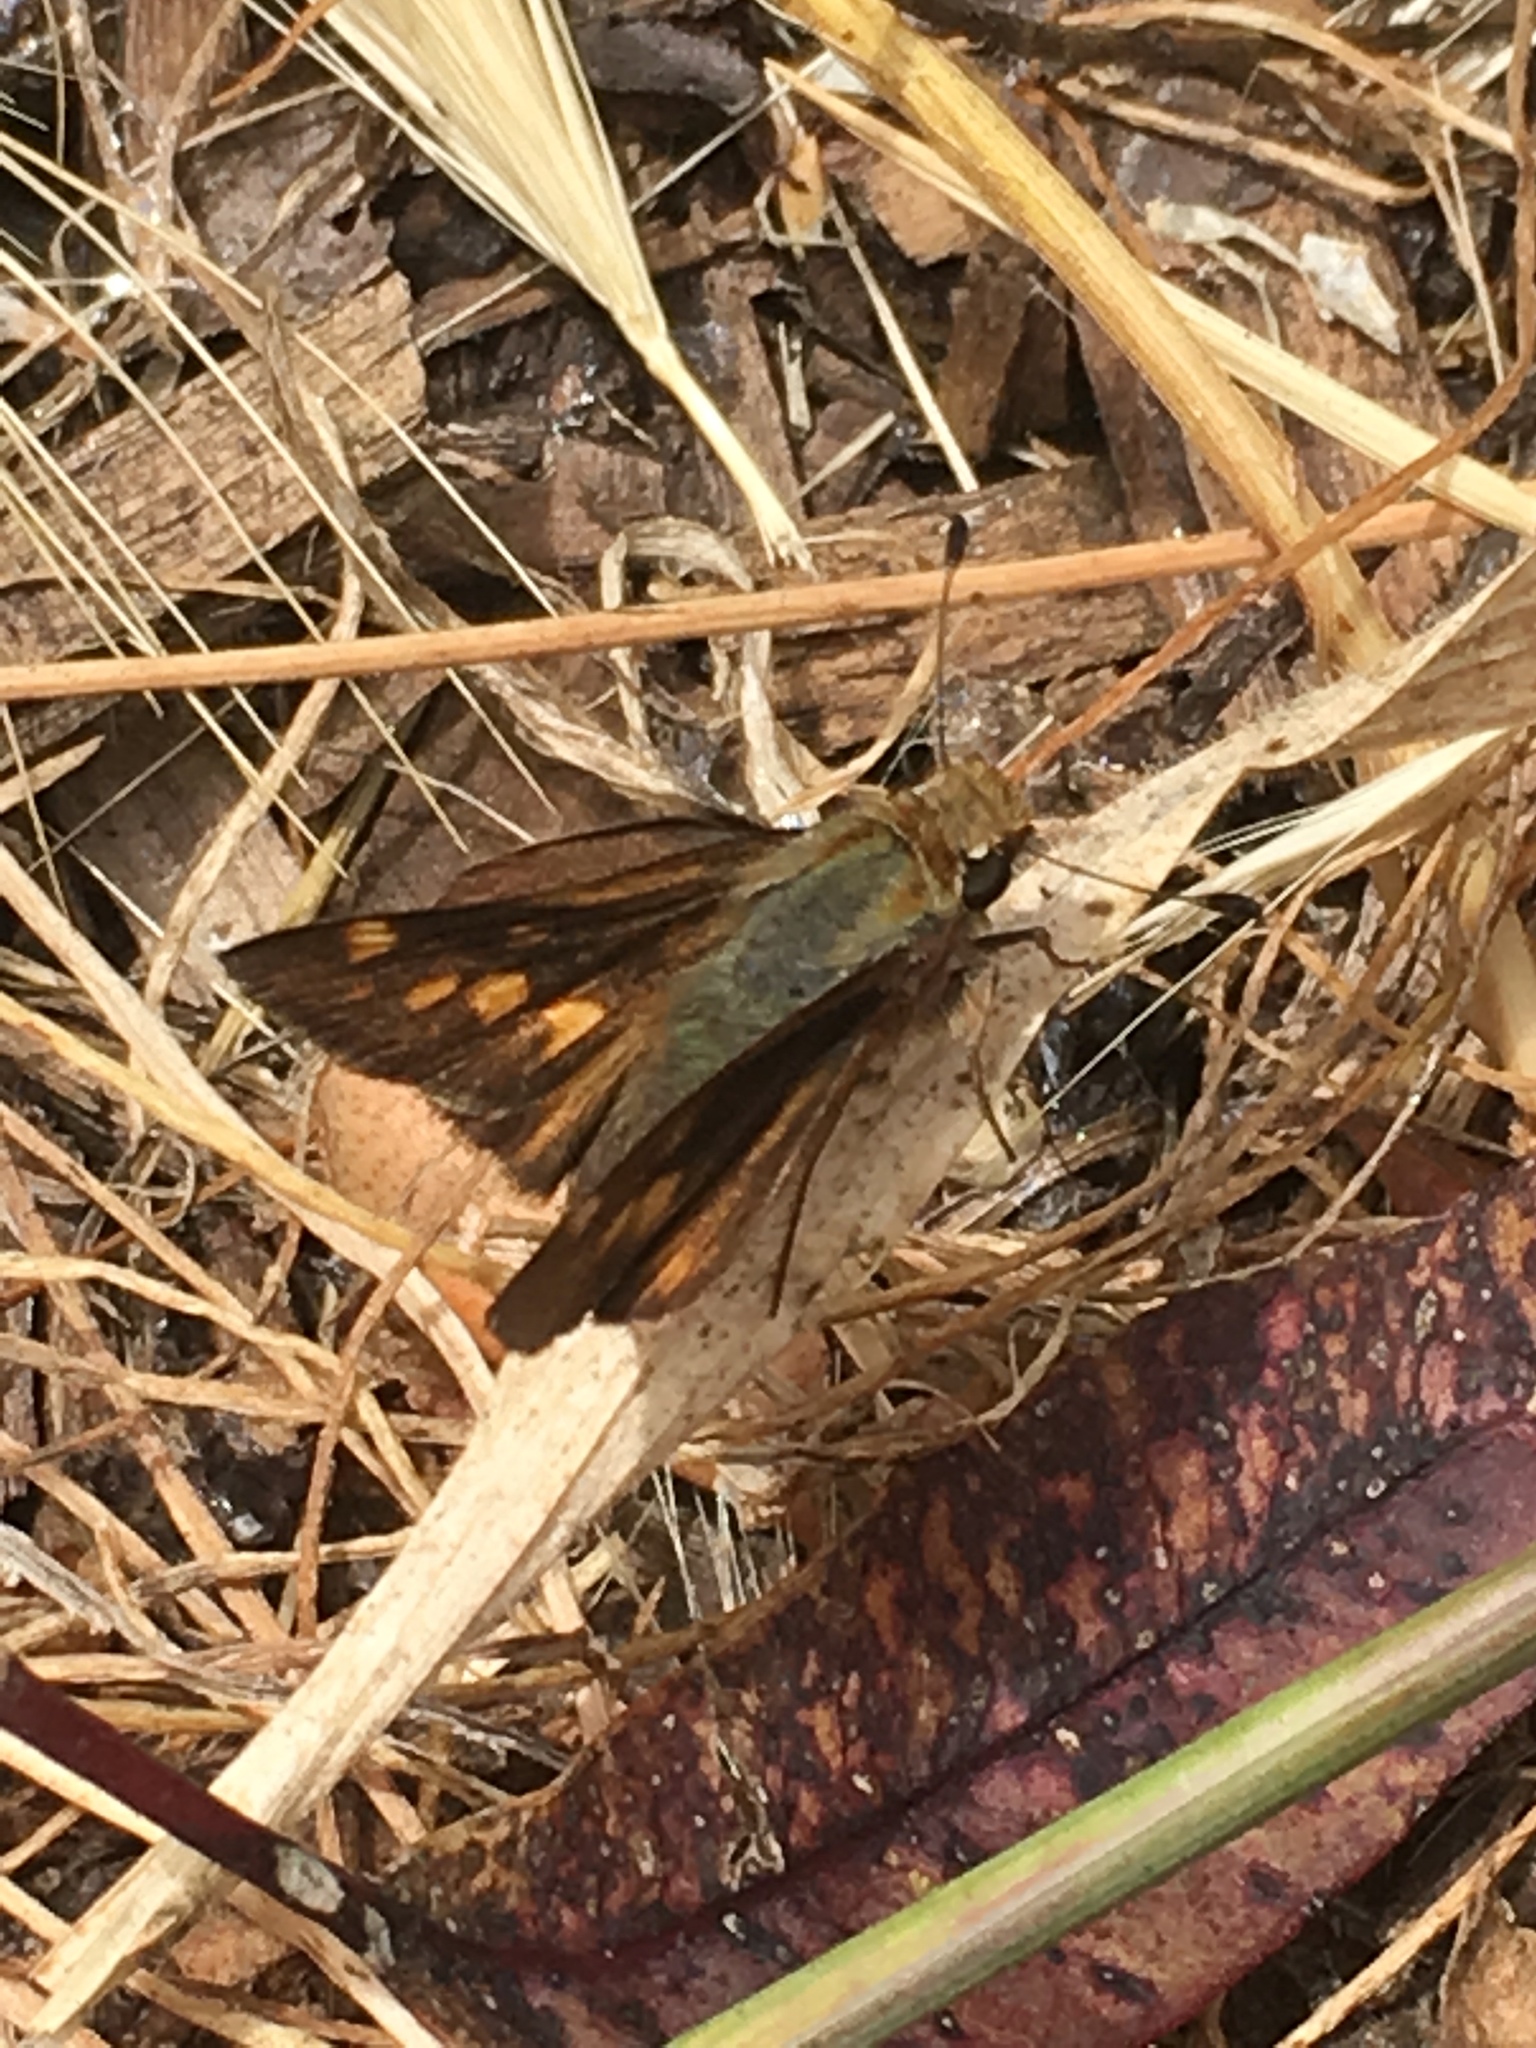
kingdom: Animalia
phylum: Arthropoda
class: Insecta
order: Lepidoptera
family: Hesperiidae
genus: Lon
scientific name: Lon melane
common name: Umber skipper
